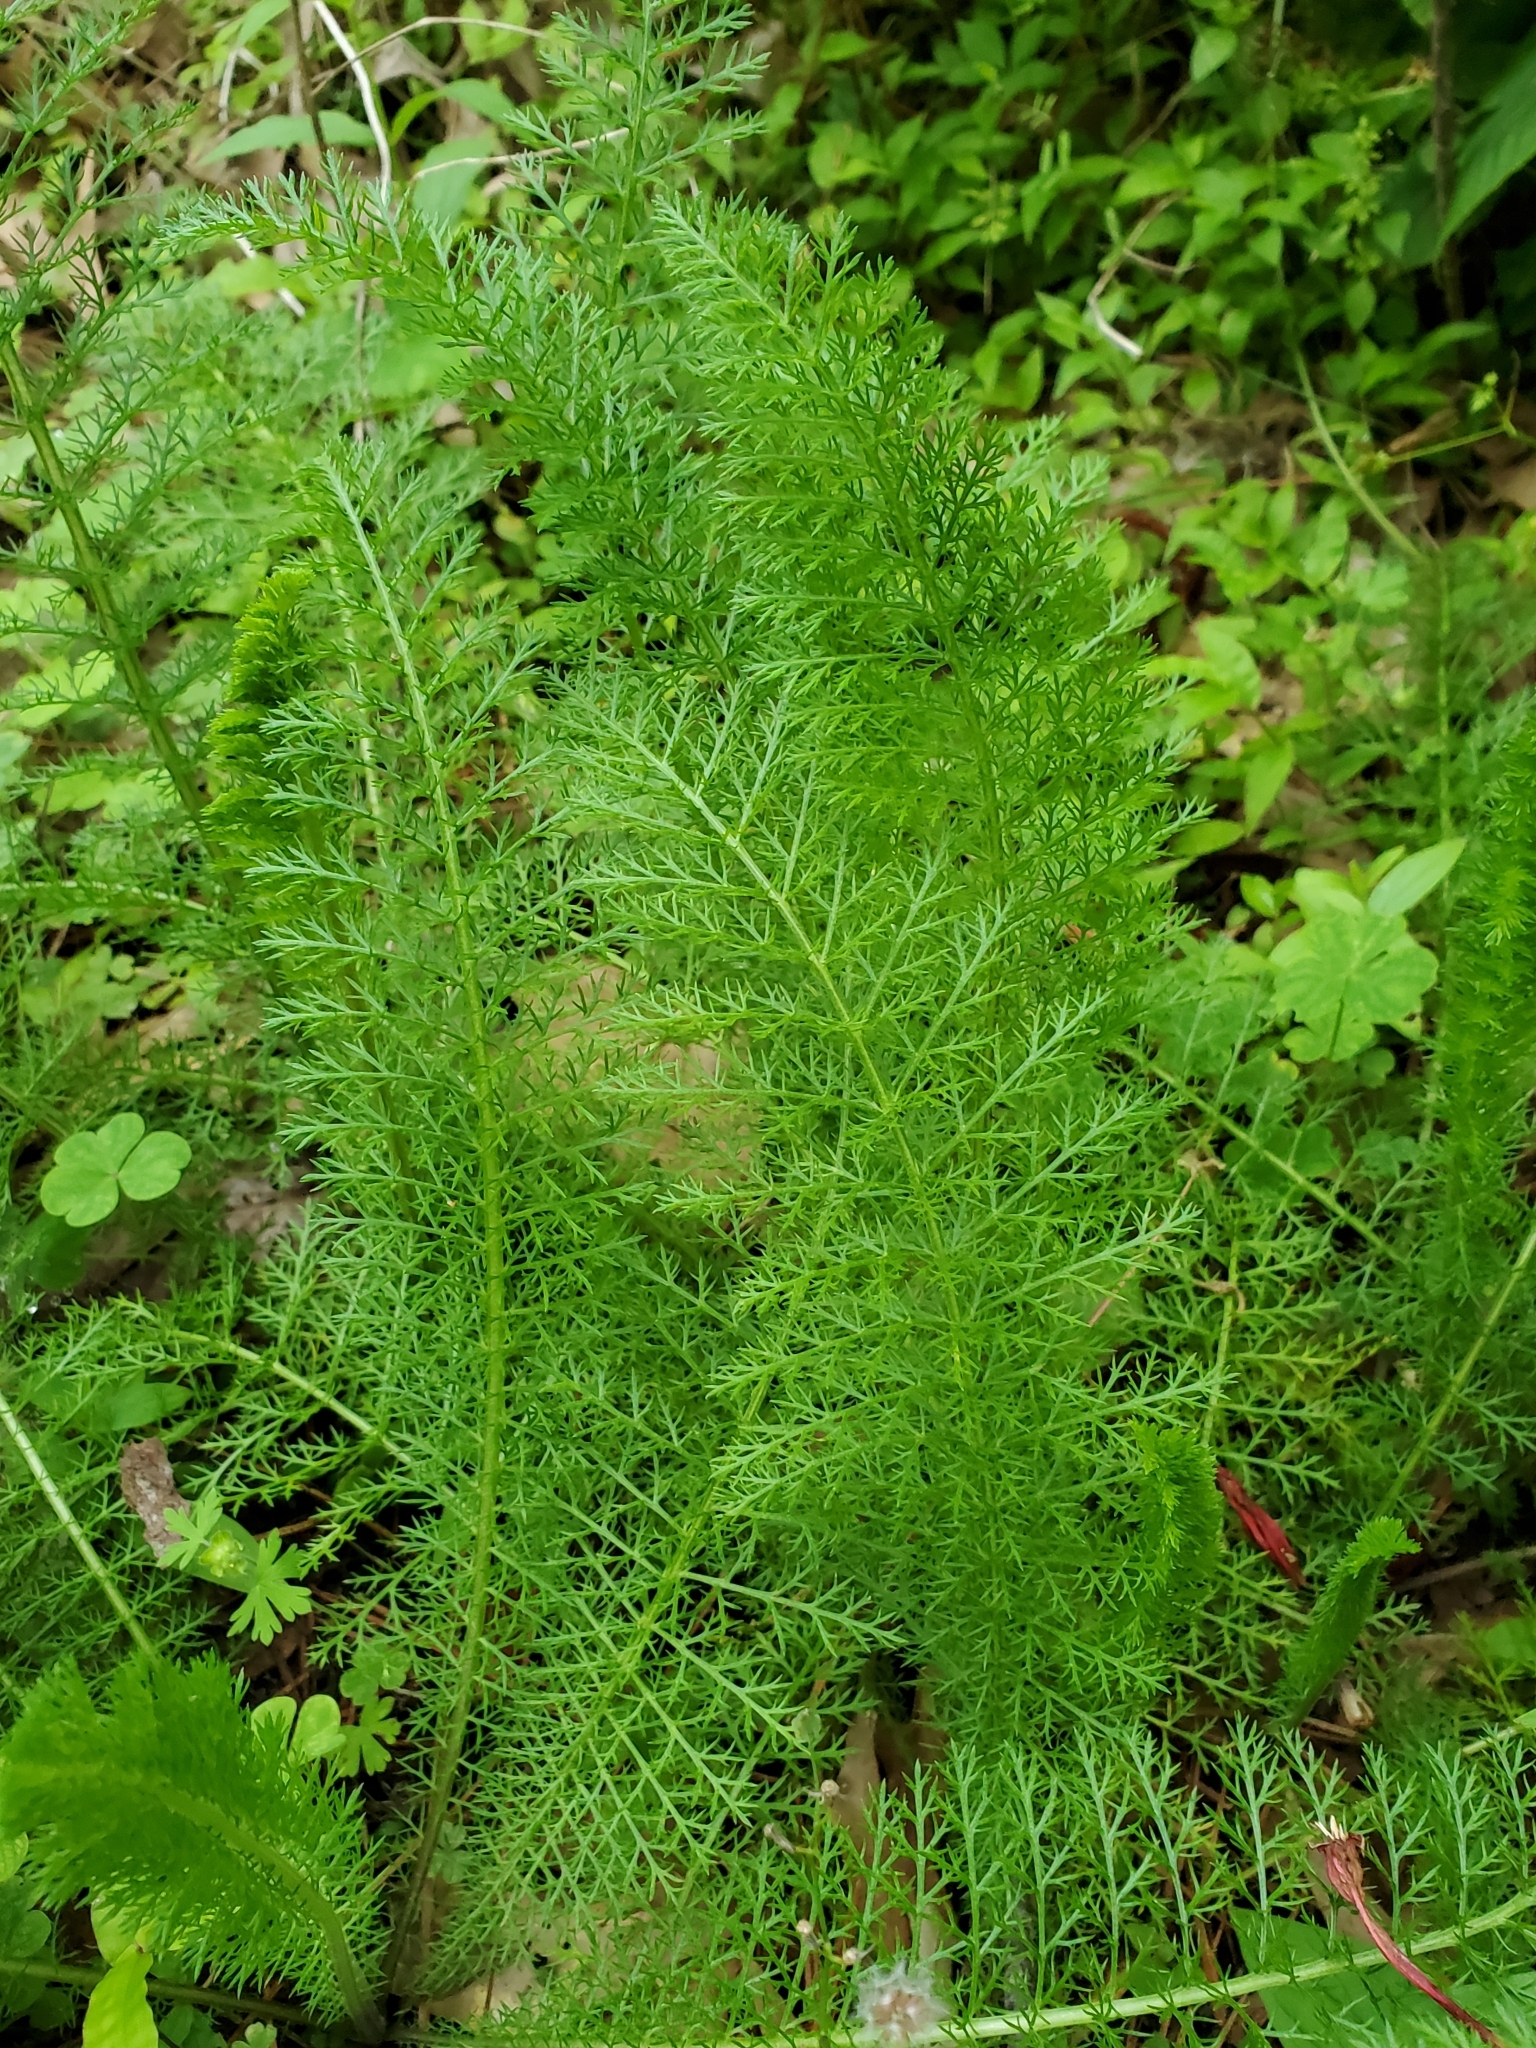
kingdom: Plantae
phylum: Tracheophyta
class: Magnoliopsida
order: Asterales
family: Asteraceae
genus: Achillea
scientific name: Achillea millefolium
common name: Yarrow
